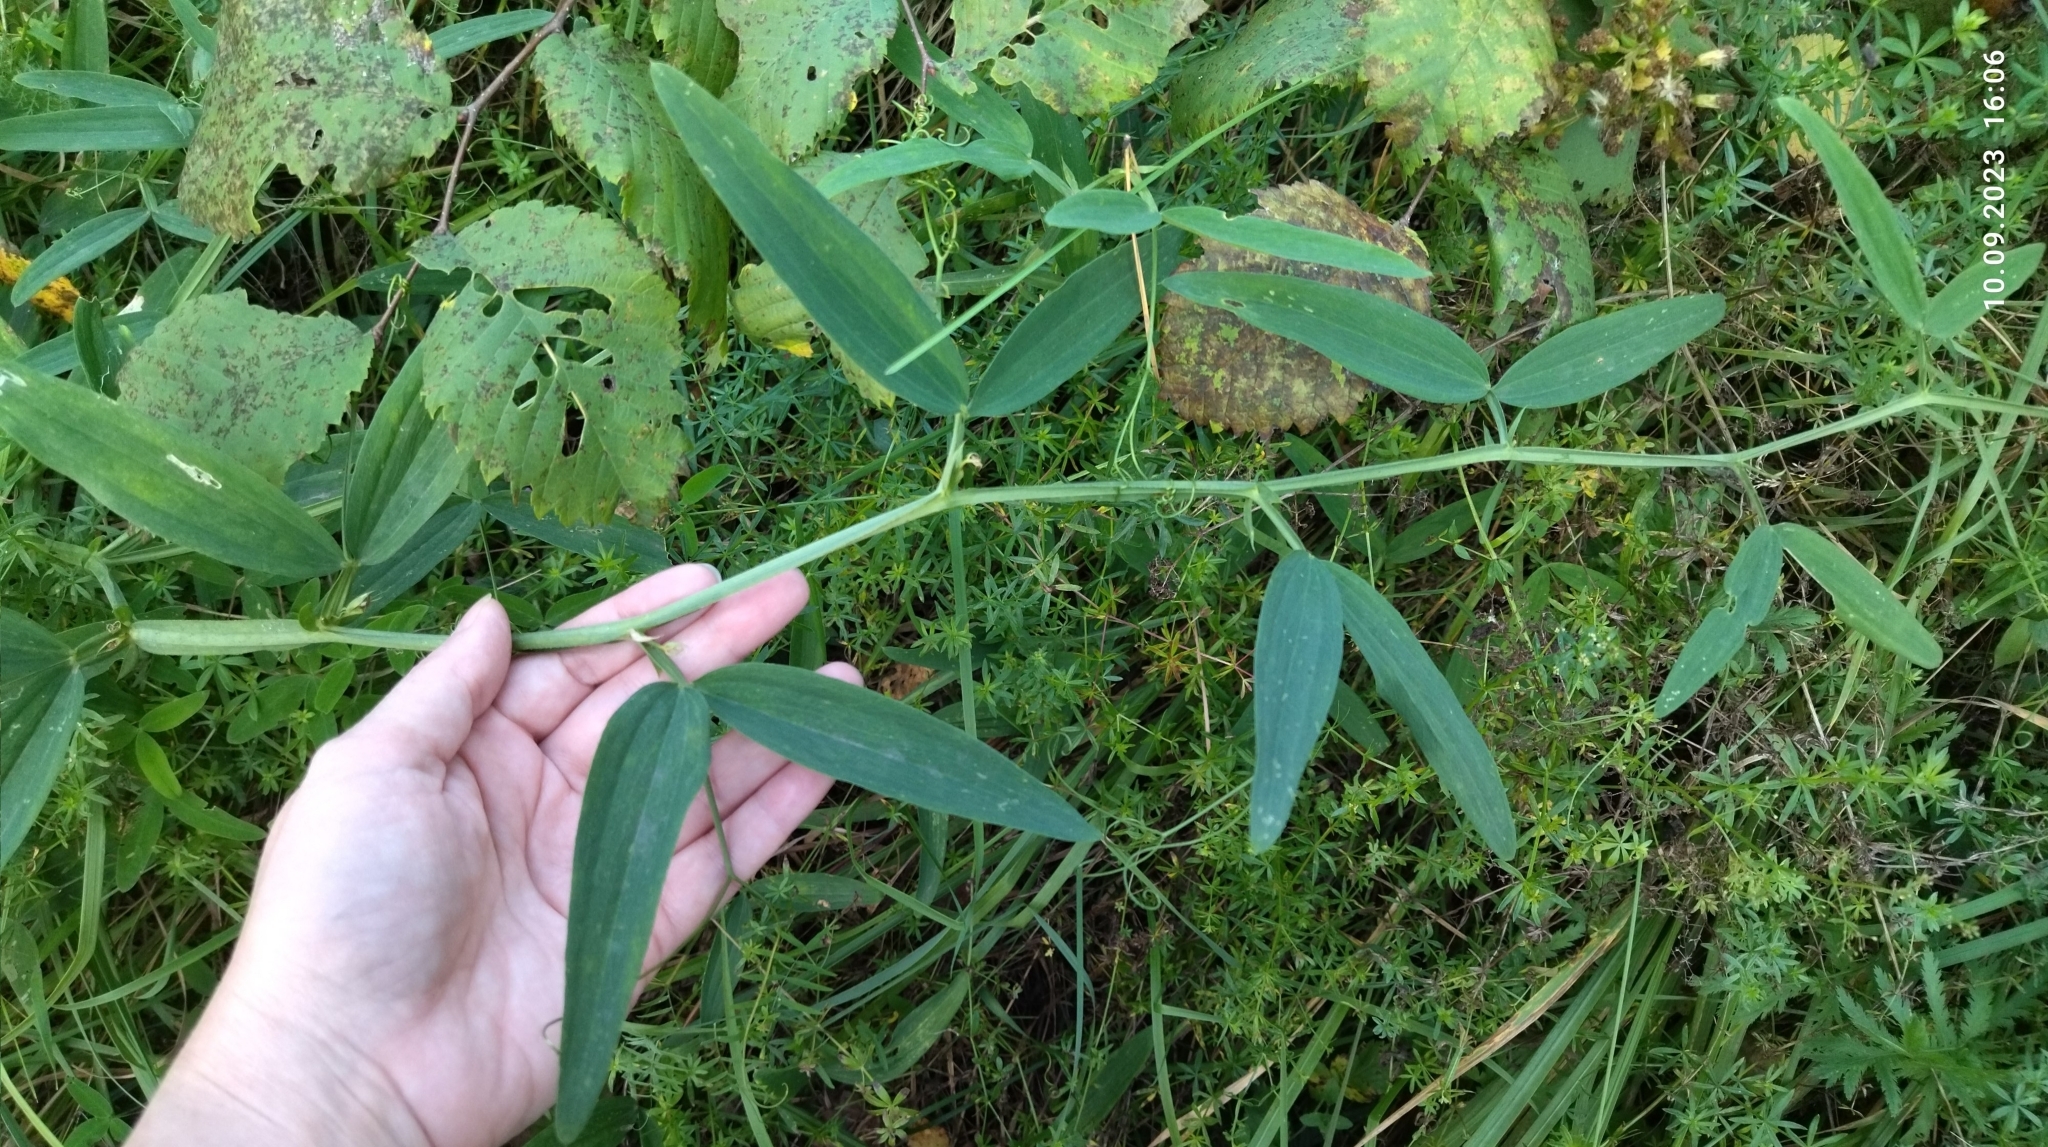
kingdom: Plantae
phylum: Tracheophyta
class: Magnoliopsida
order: Fabales
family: Fabaceae
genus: Lathyrus
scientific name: Lathyrus sylvestris
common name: Flat pea
